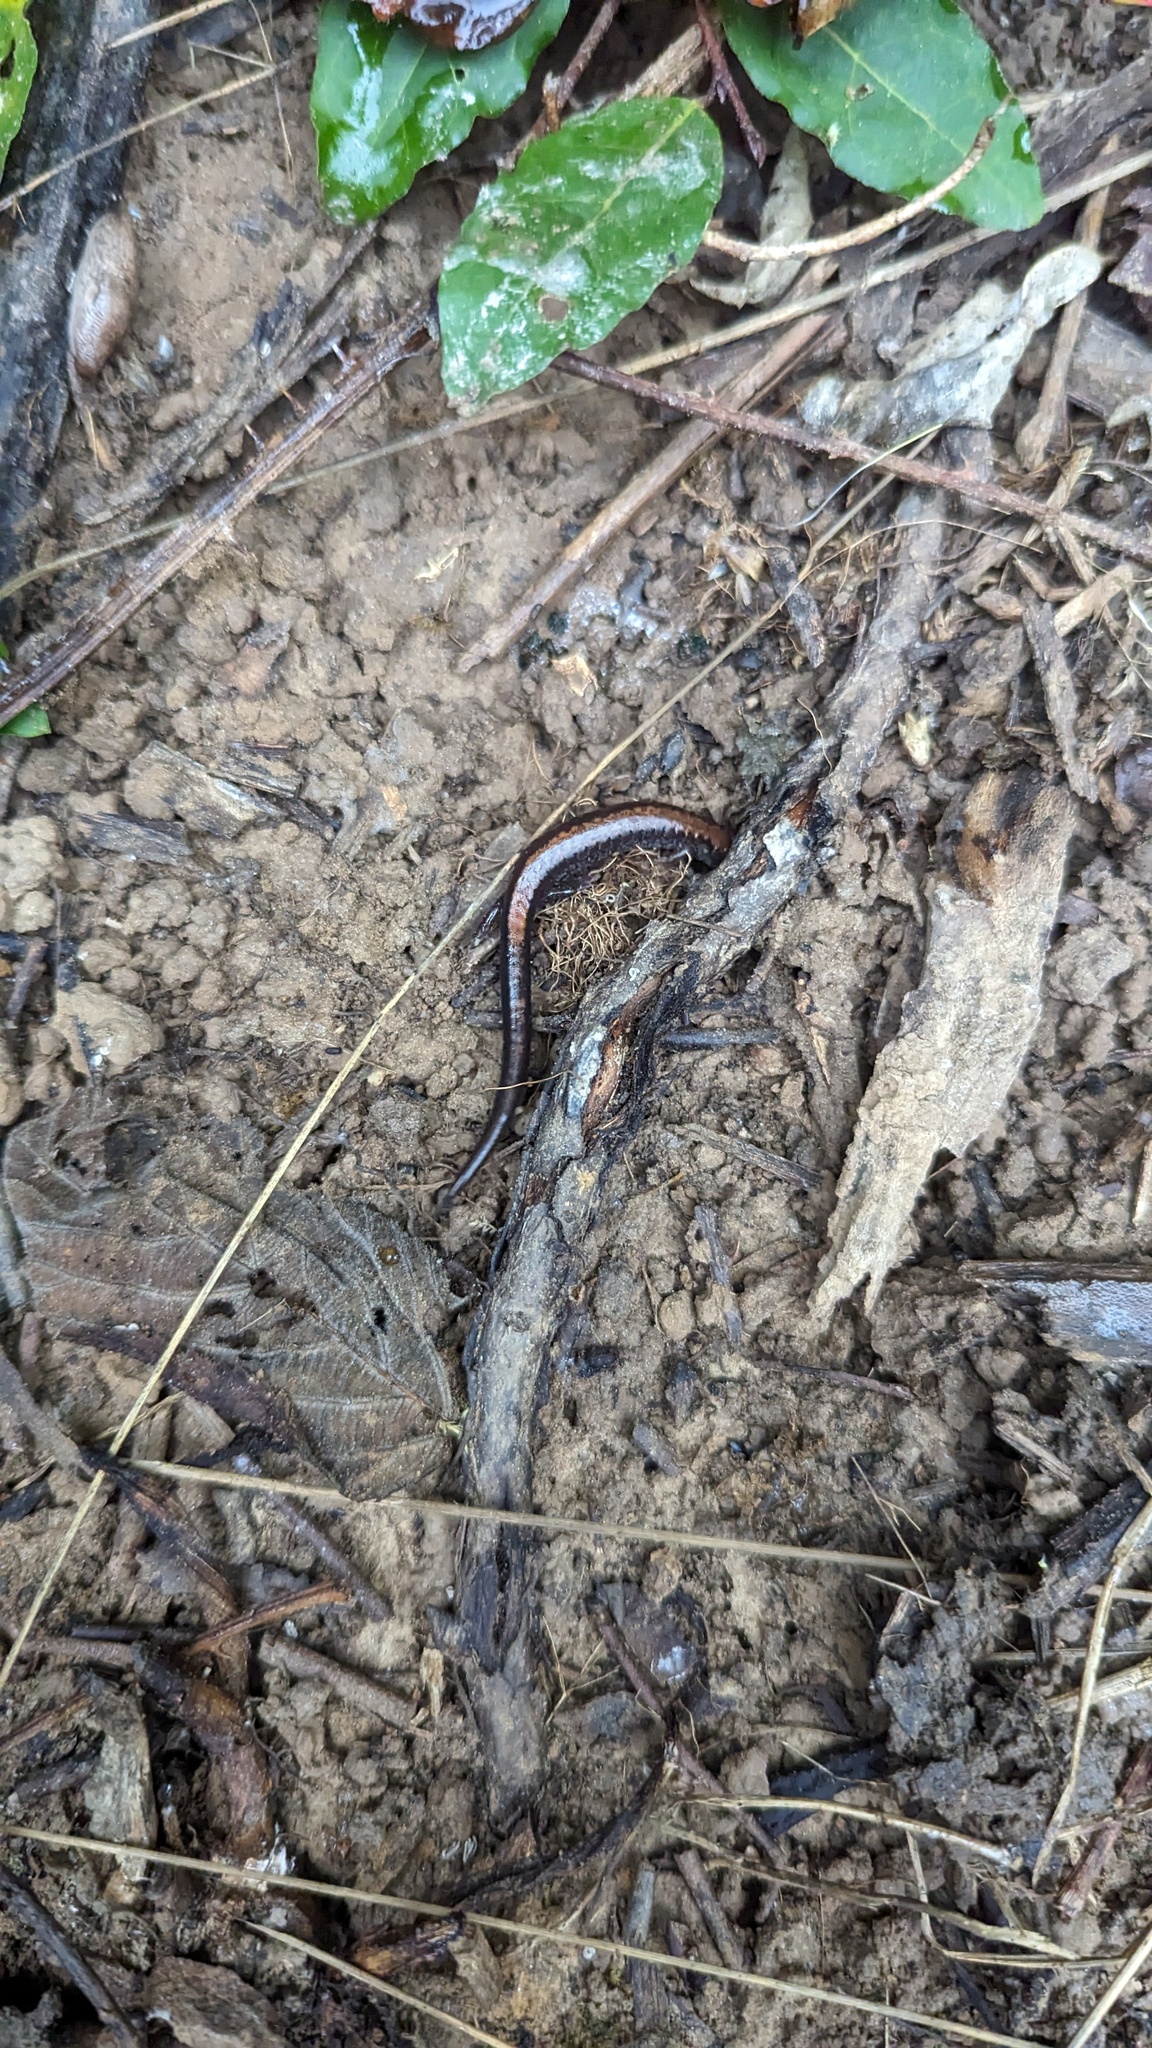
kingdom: Animalia
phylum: Chordata
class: Amphibia
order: Caudata
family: Plethodontidae
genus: Plethodon
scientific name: Plethodon cinereus
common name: Redback salamander
